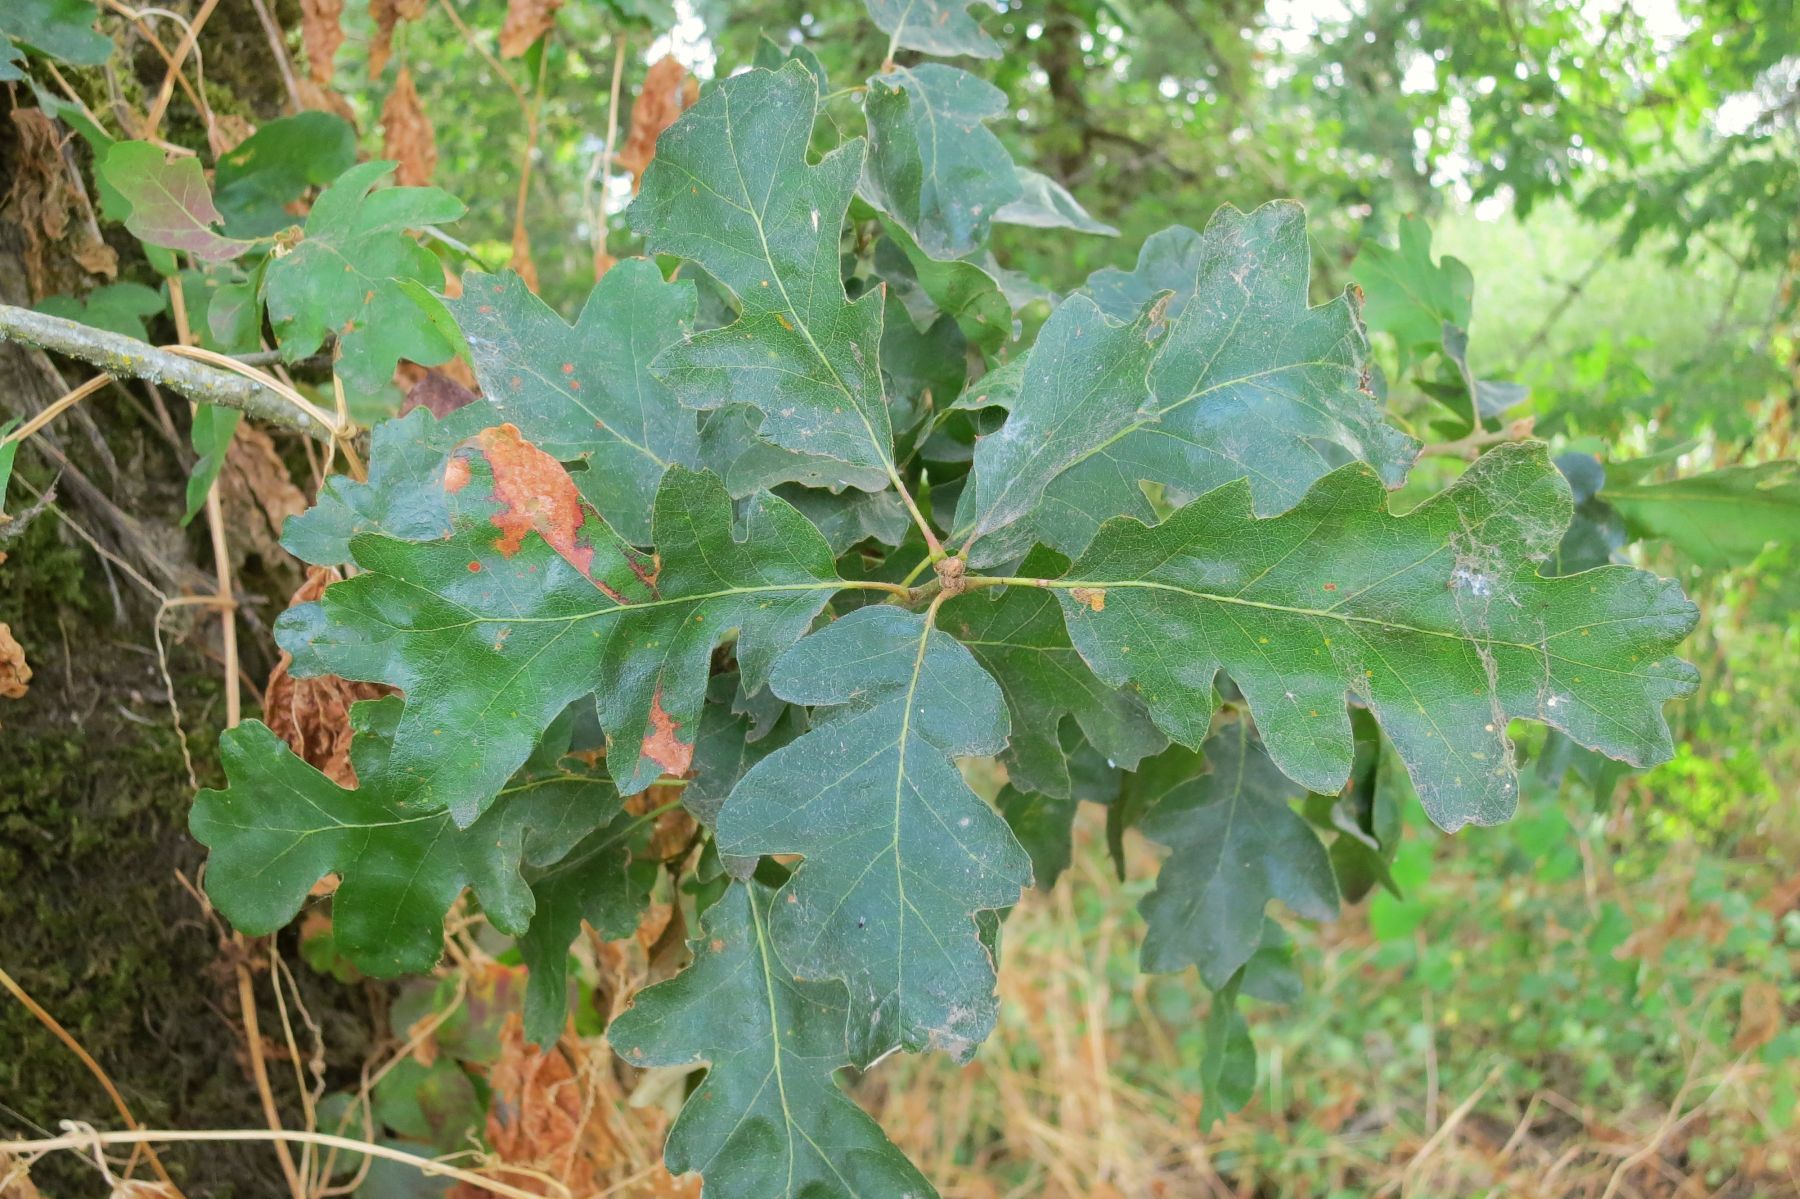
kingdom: Plantae
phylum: Tracheophyta
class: Magnoliopsida
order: Fagales
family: Fagaceae
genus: Quercus
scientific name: Quercus garryana
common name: Garry oak
